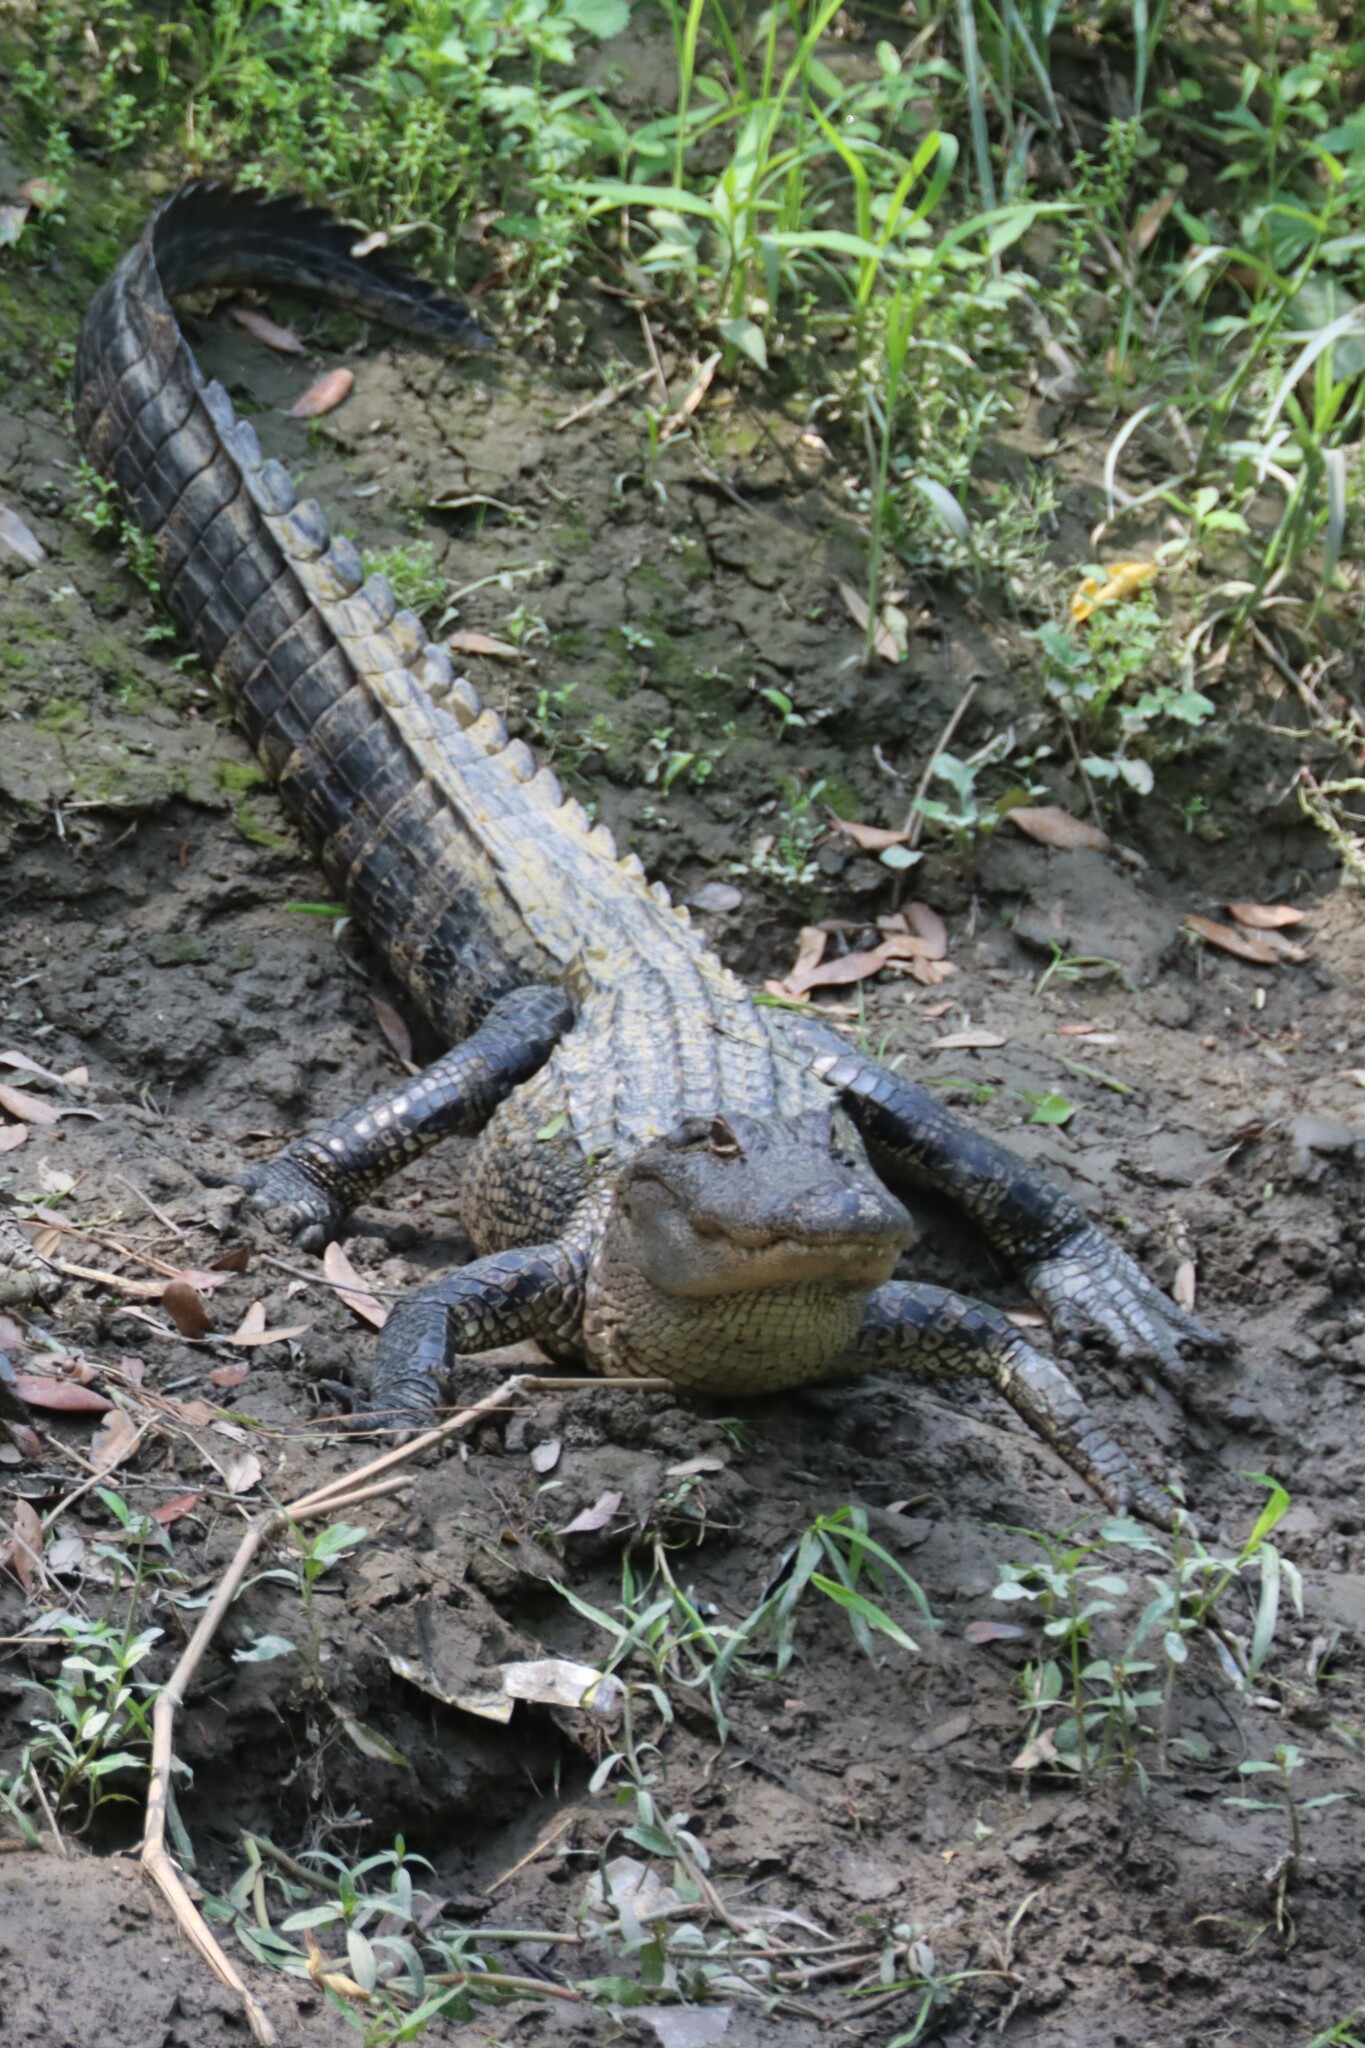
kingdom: Animalia
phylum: Chordata
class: Crocodylia
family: Alligatoridae
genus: Alligator
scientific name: Alligator mississippiensis
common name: American alligator
